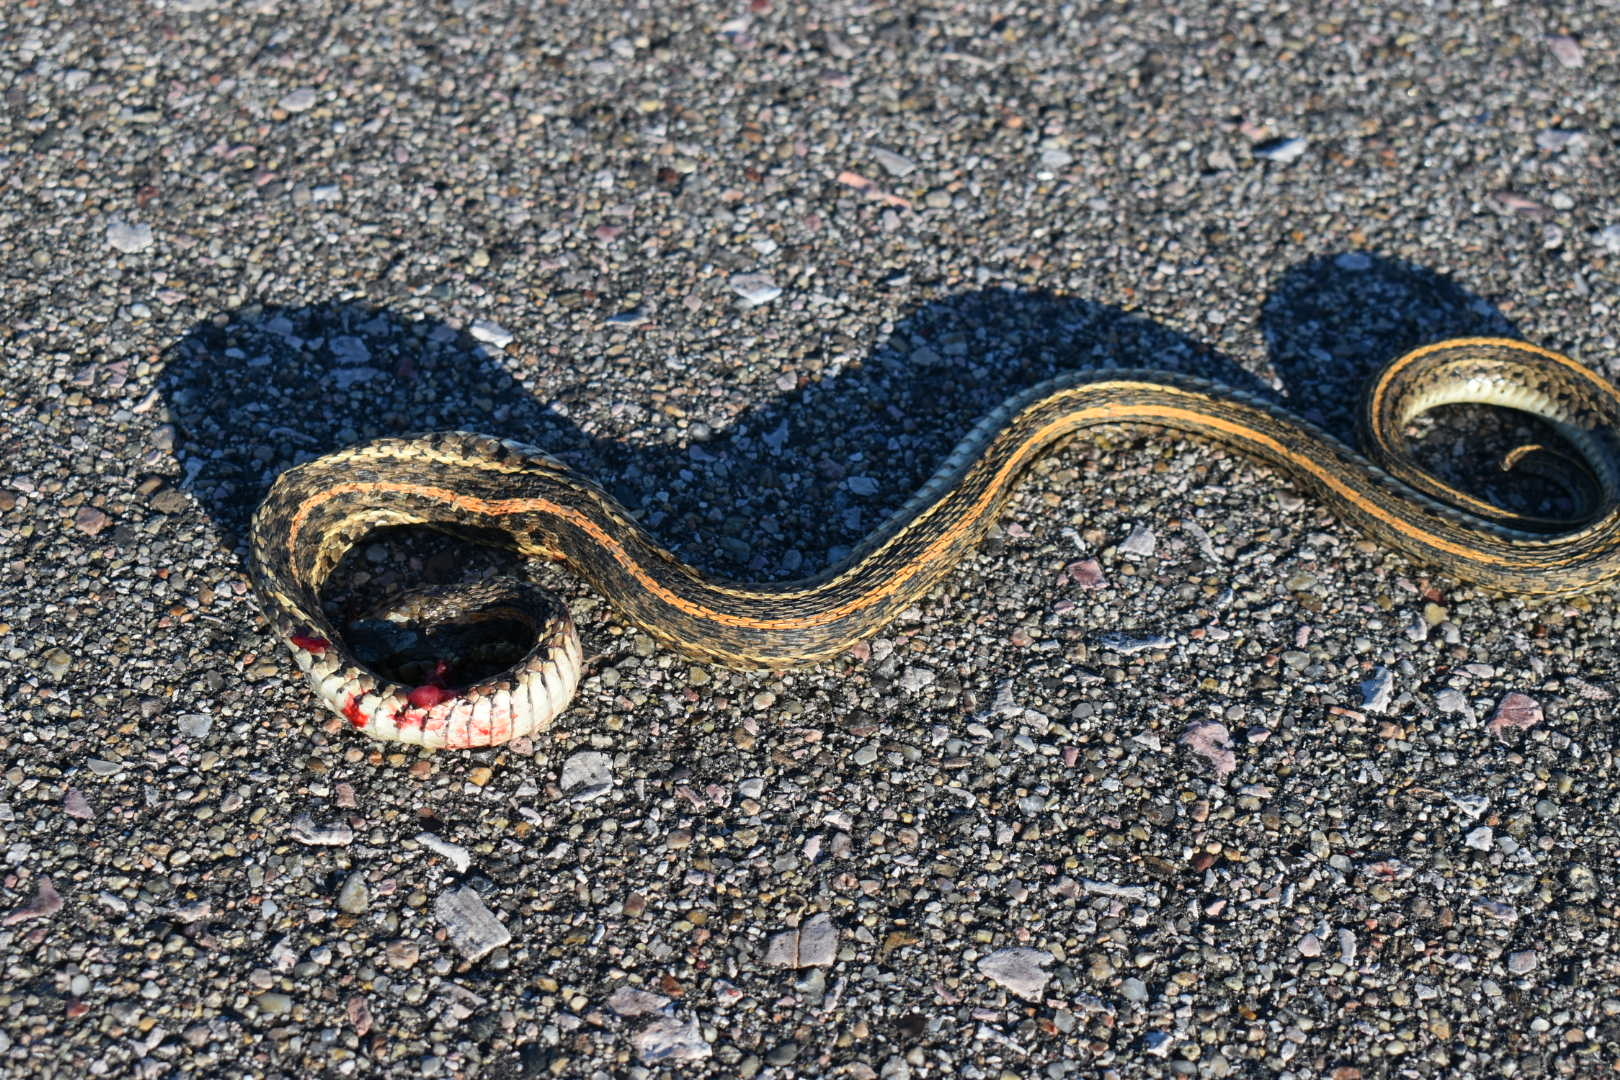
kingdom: Animalia
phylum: Chordata
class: Squamata
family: Colubridae
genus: Thamnophis
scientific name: Thamnophis radix
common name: Plains garter snake
